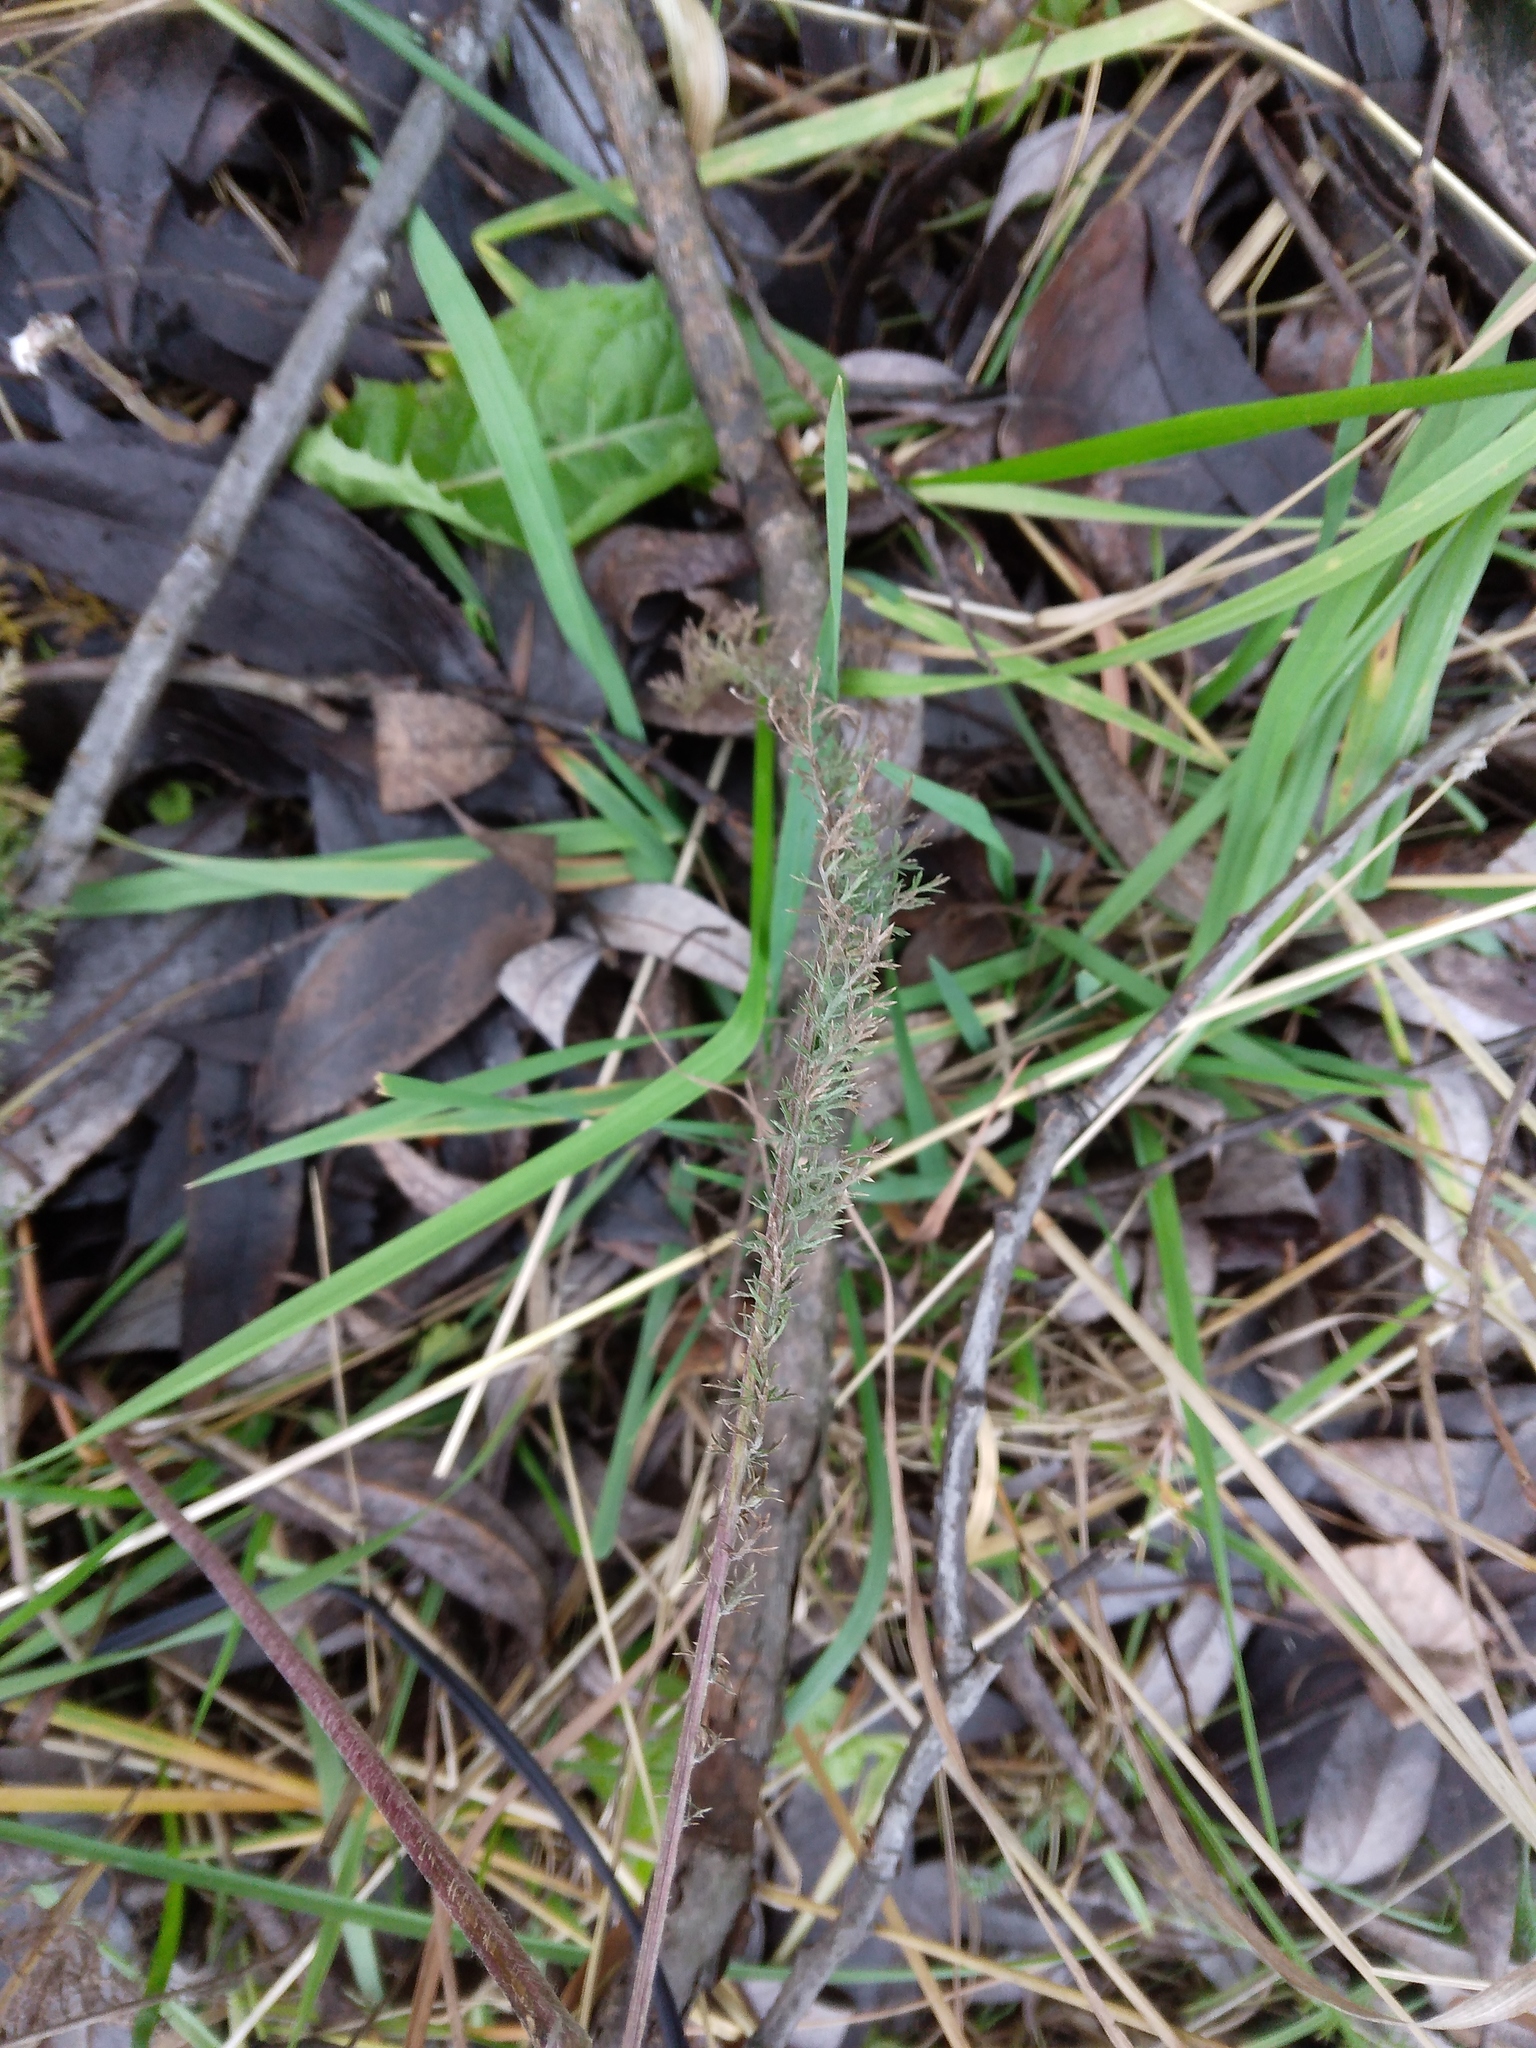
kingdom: Plantae
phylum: Tracheophyta
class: Magnoliopsida
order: Asterales
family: Asteraceae
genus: Achillea
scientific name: Achillea millefolium
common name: Yarrow
